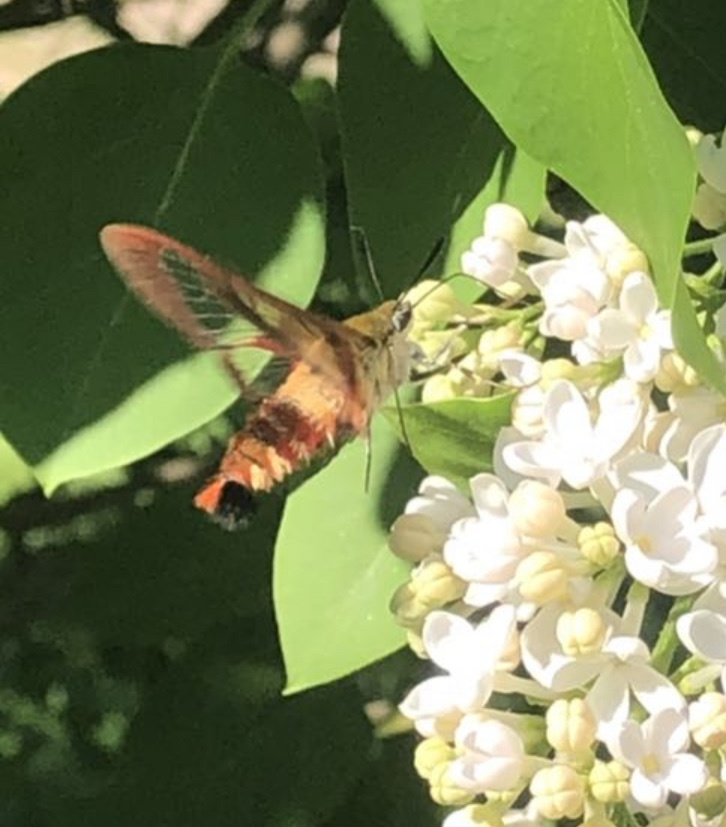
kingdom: Animalia
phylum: Arthropoda
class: Insecta
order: Lepidoptera
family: Sphingidae
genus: Hemaris
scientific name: Hemaris thysbe
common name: Common clear-wing
